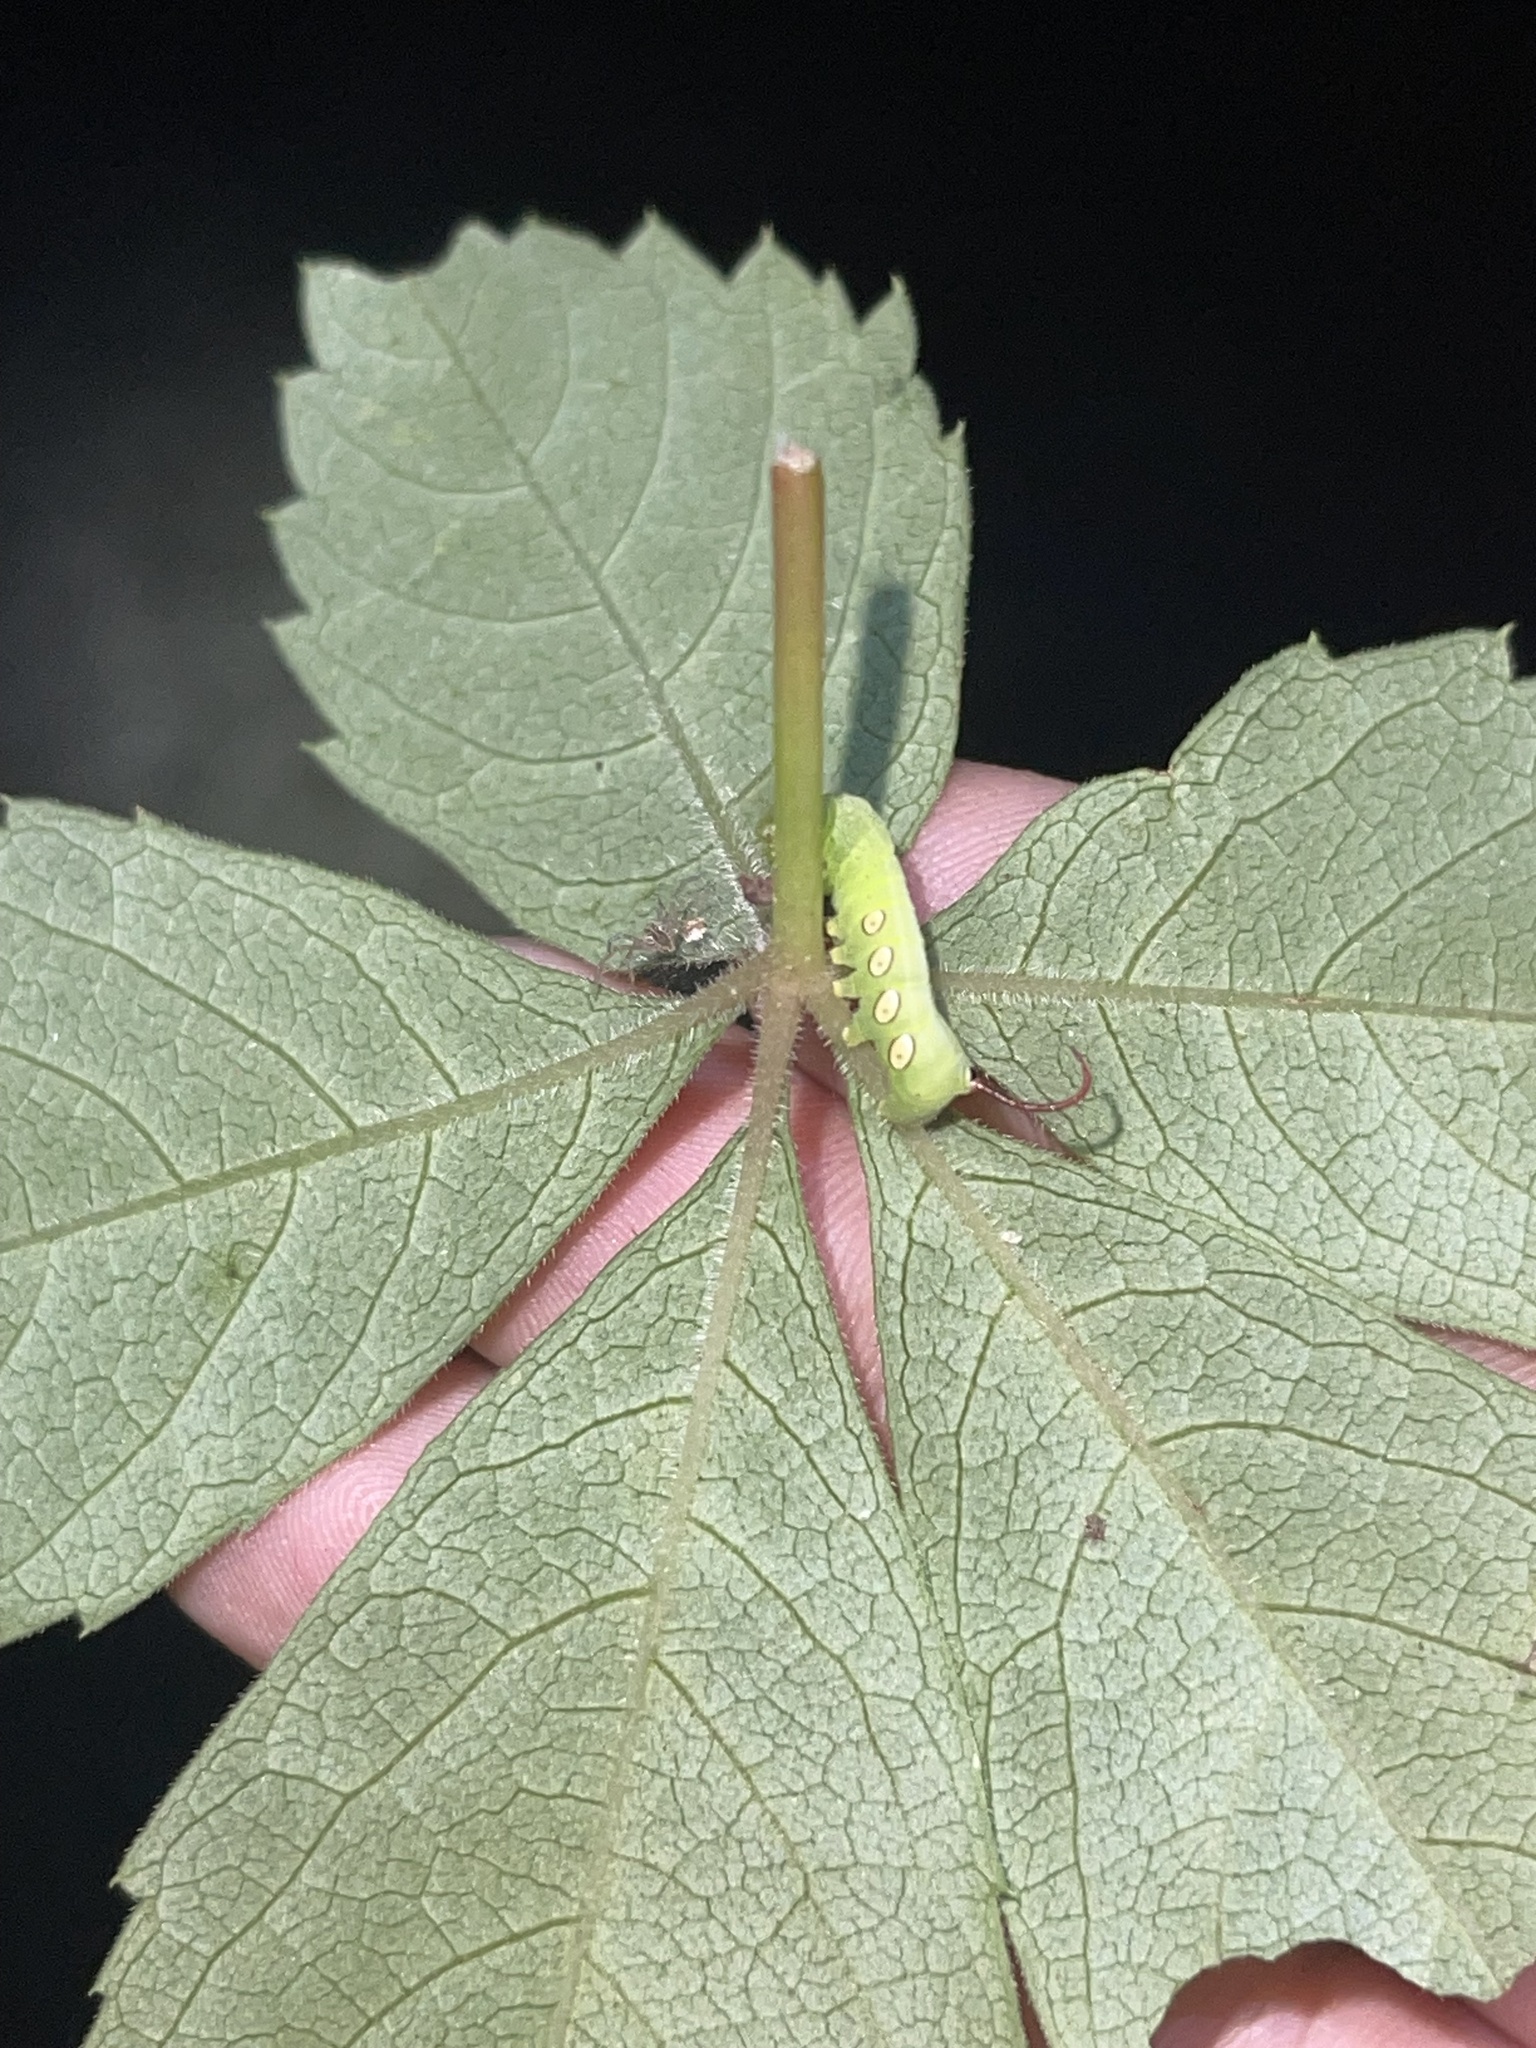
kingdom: Animalia
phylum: Arthropoda
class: Insecta
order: Lepidoptera
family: Sphingidae
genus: Eumorpha
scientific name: Eumorpha pandorus
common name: Pandora sphinx
